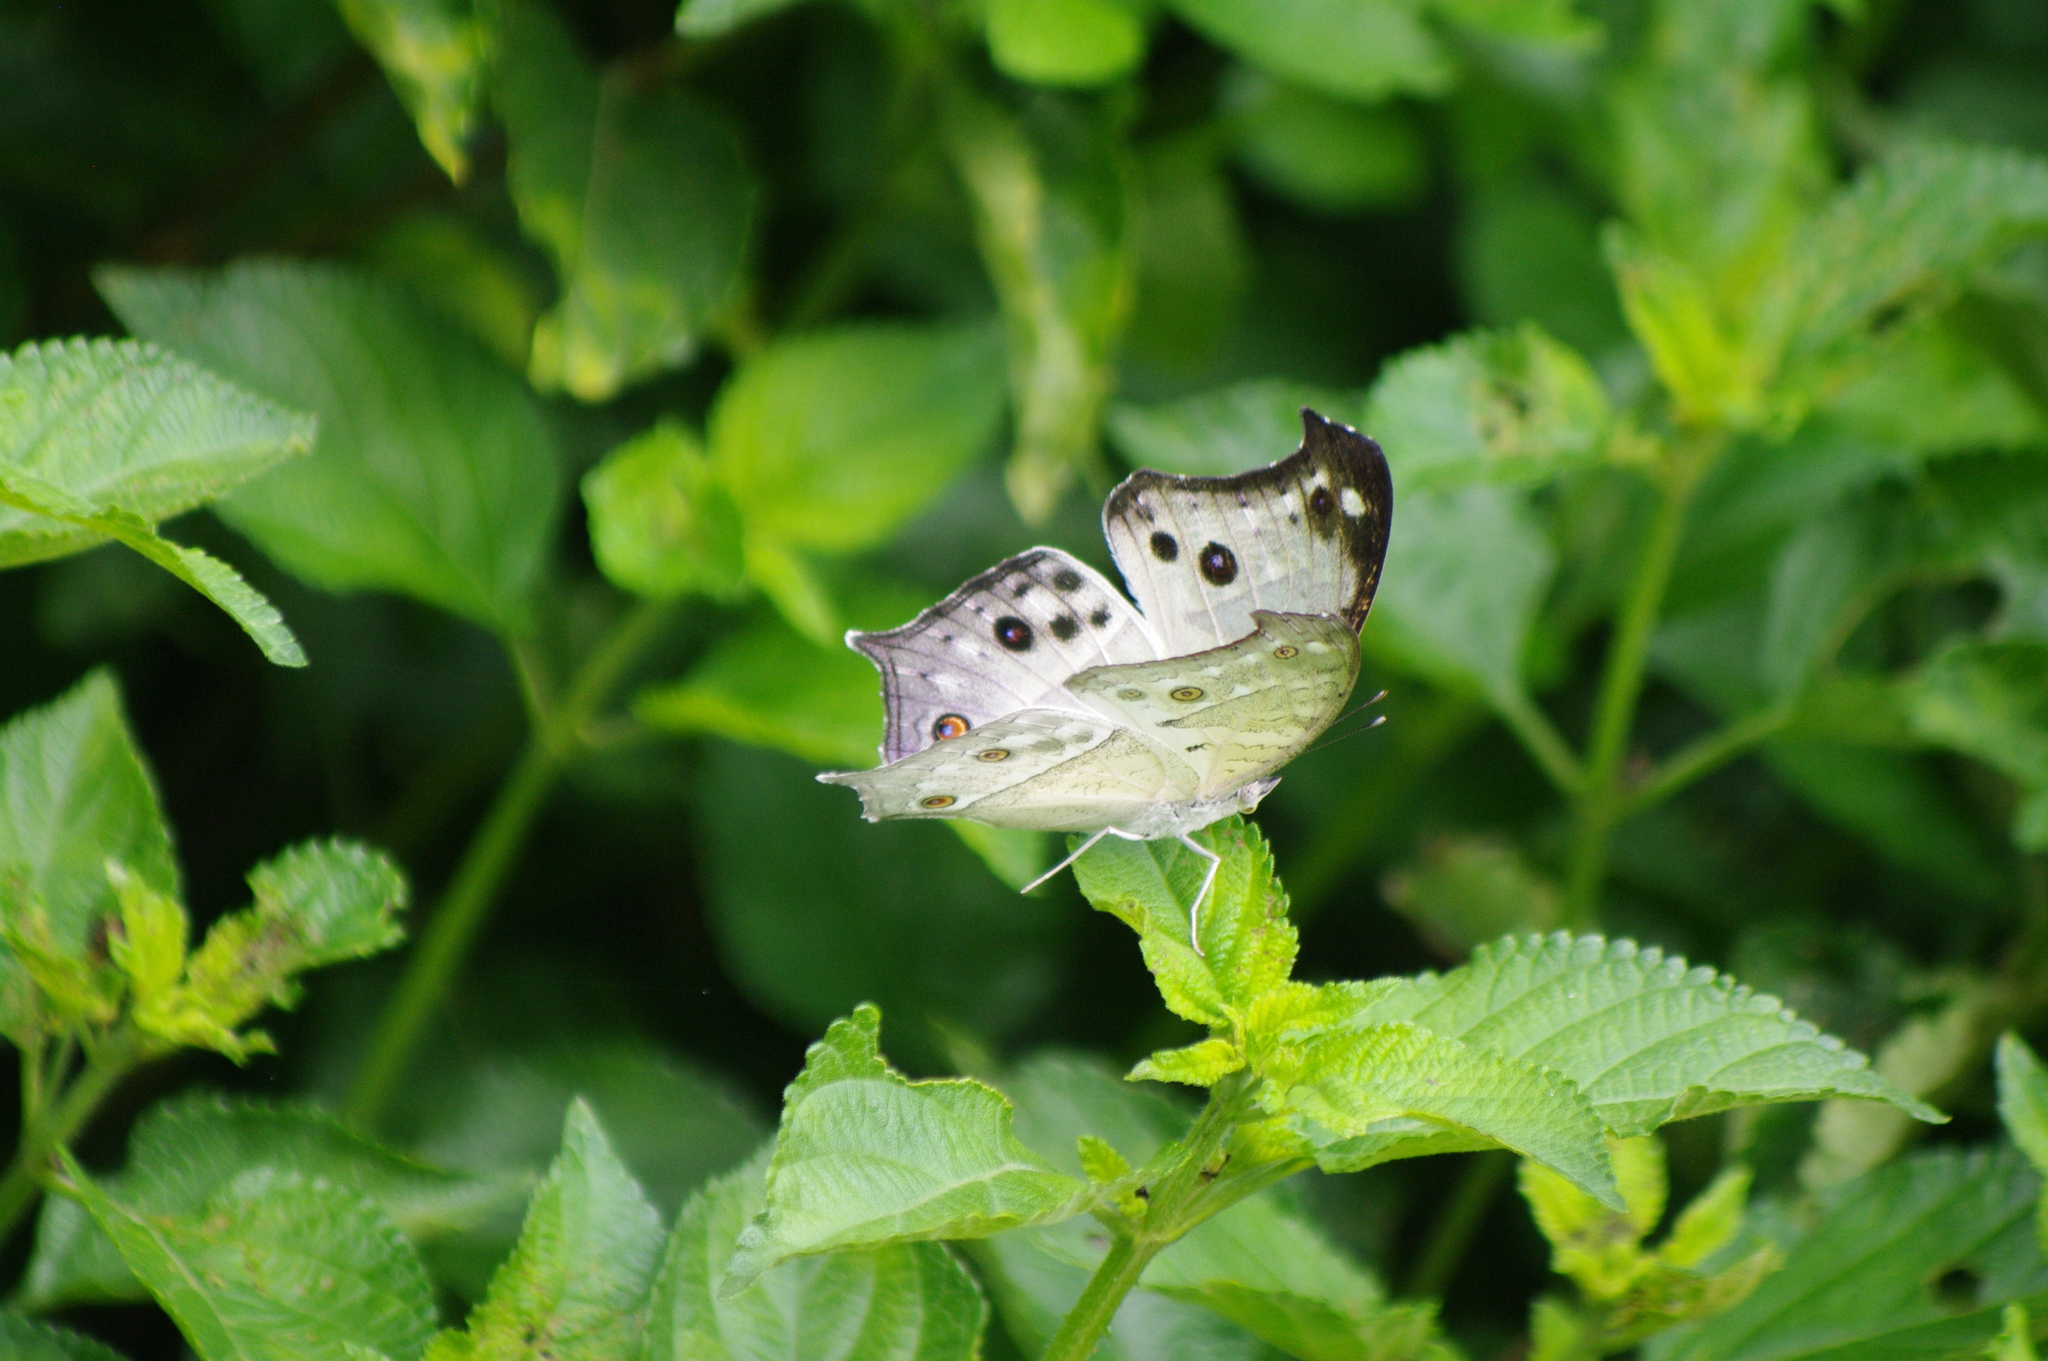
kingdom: Animalia
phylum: Arthropoda
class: Insecta
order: Lepidoptera
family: Nymphalidae
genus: Salamis
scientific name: Salamis Protogoniomorpha parhassus
